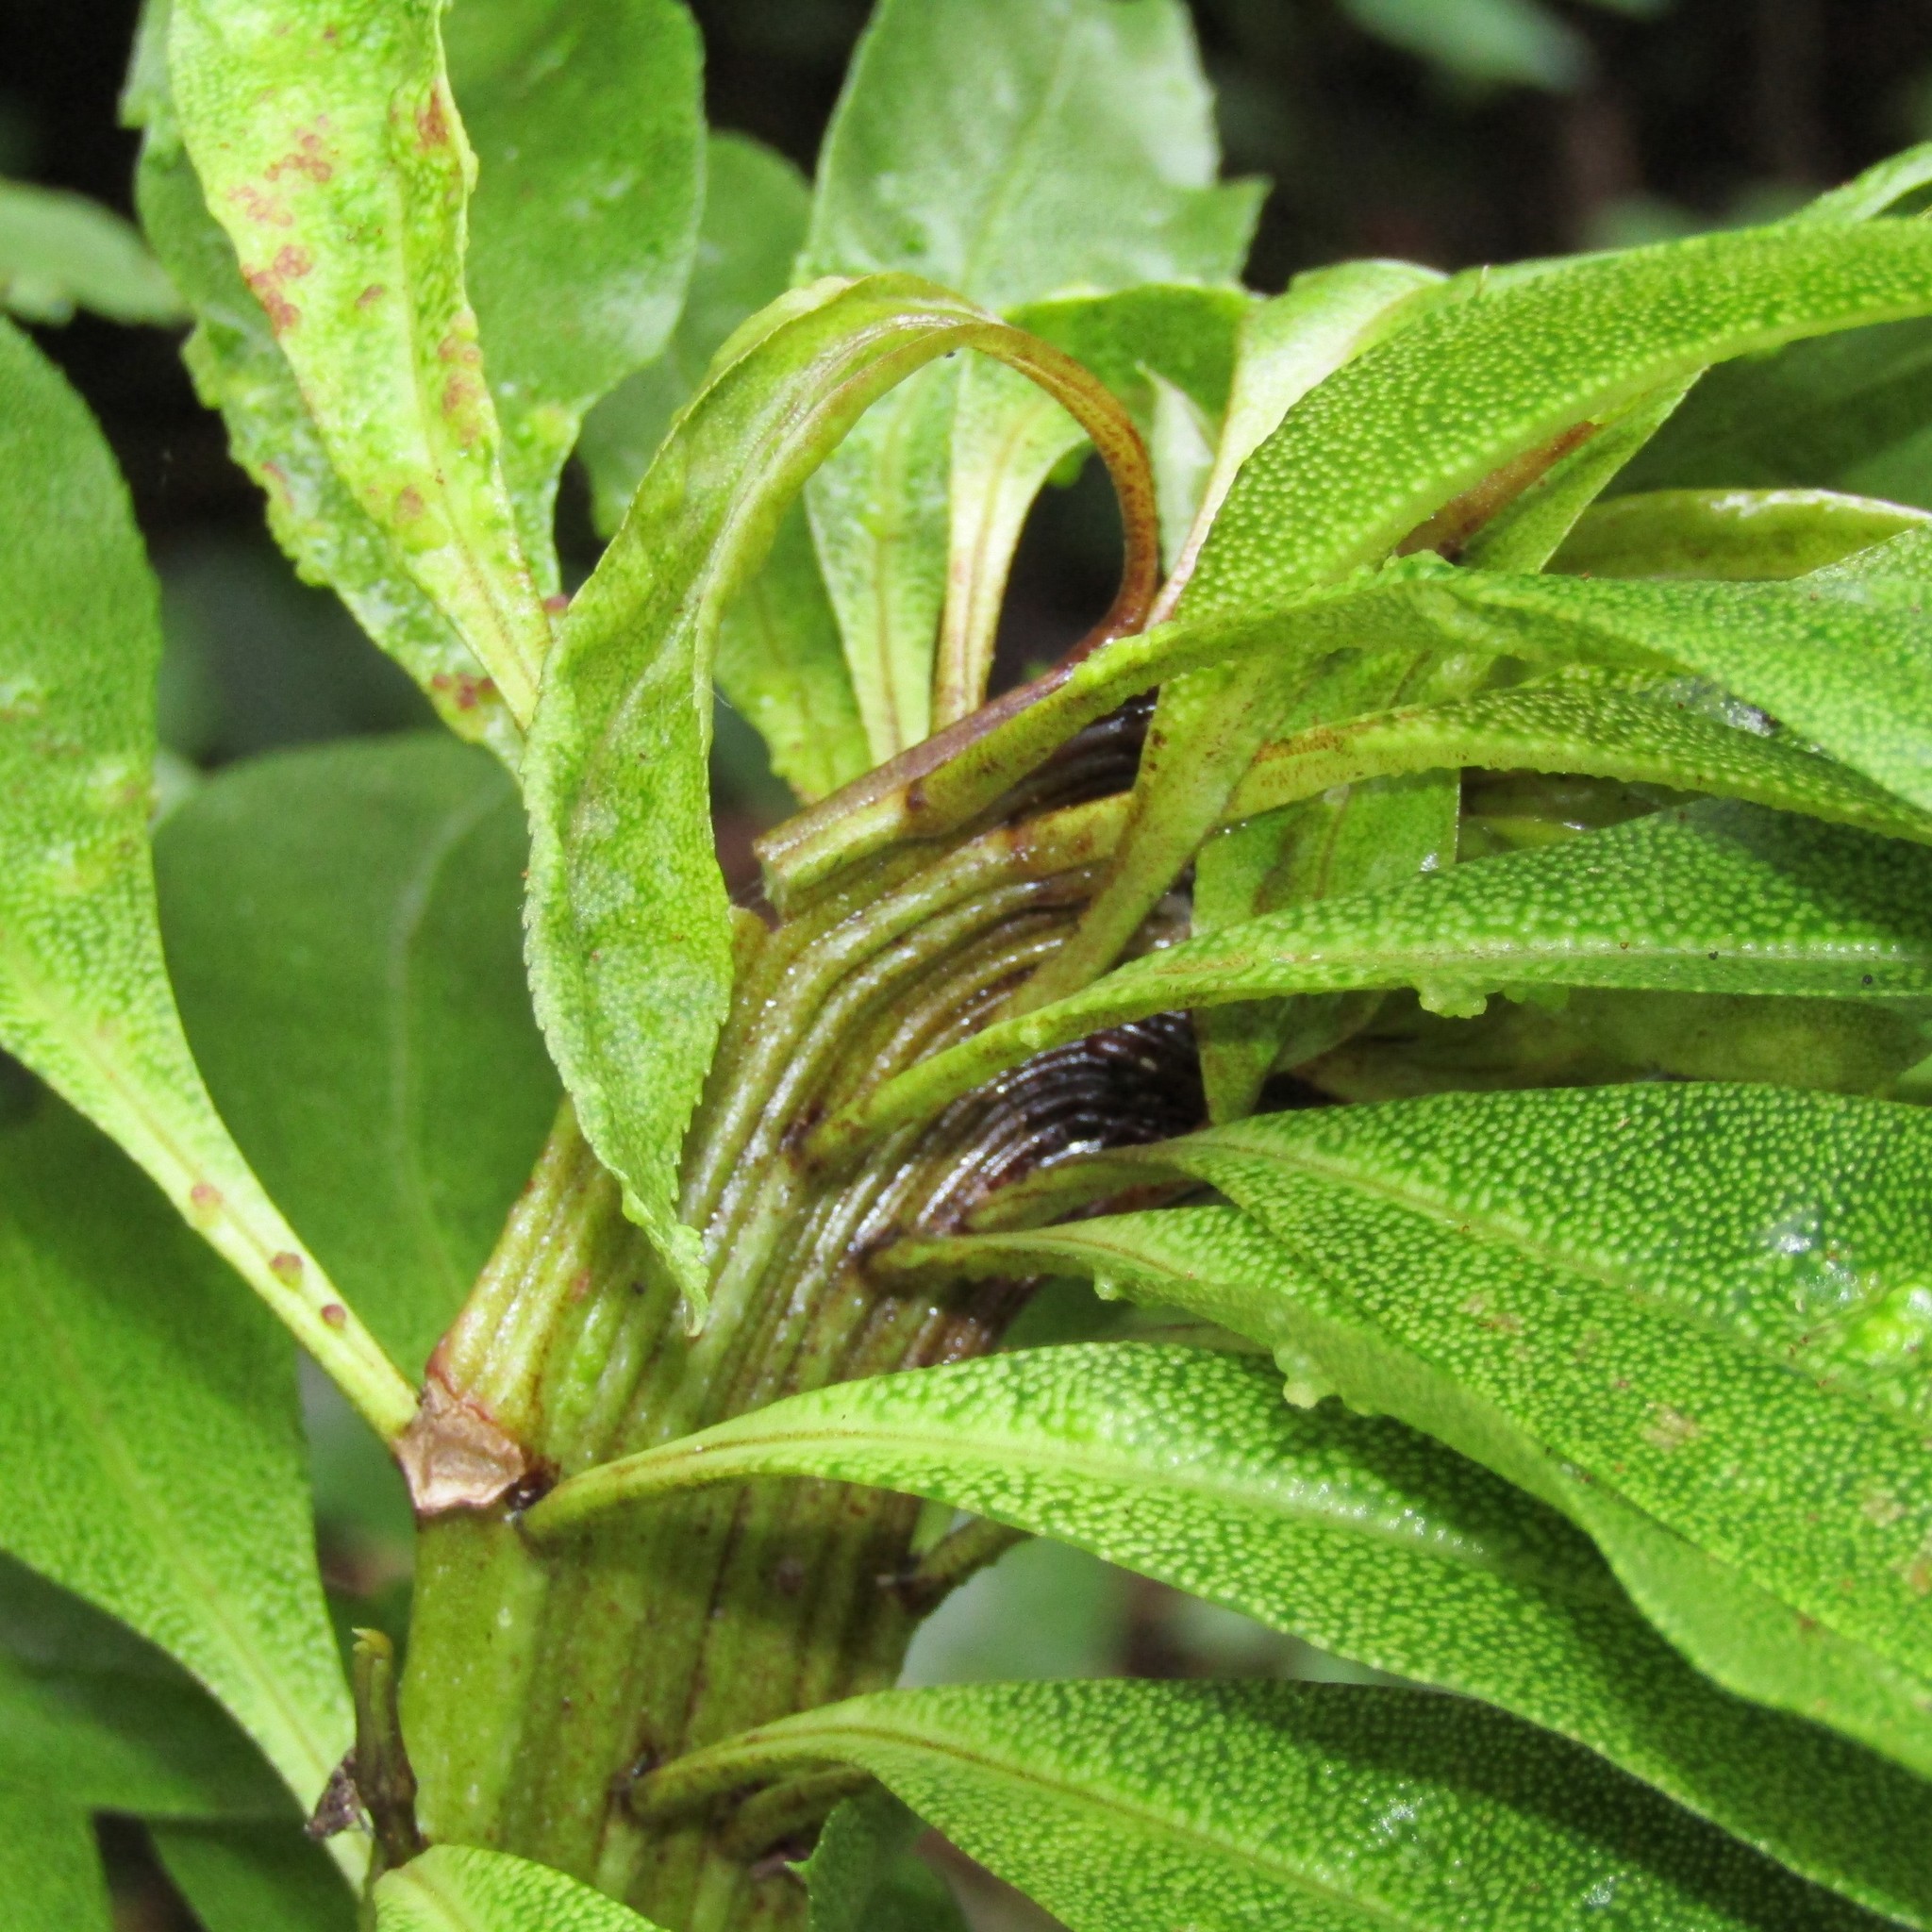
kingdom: Plantae
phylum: Tracheophyta
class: Magnoliopsida
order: Lamiales
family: Scrophulariaceae
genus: Myoporum
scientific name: Myoporum laetum
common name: Ngaio tree
